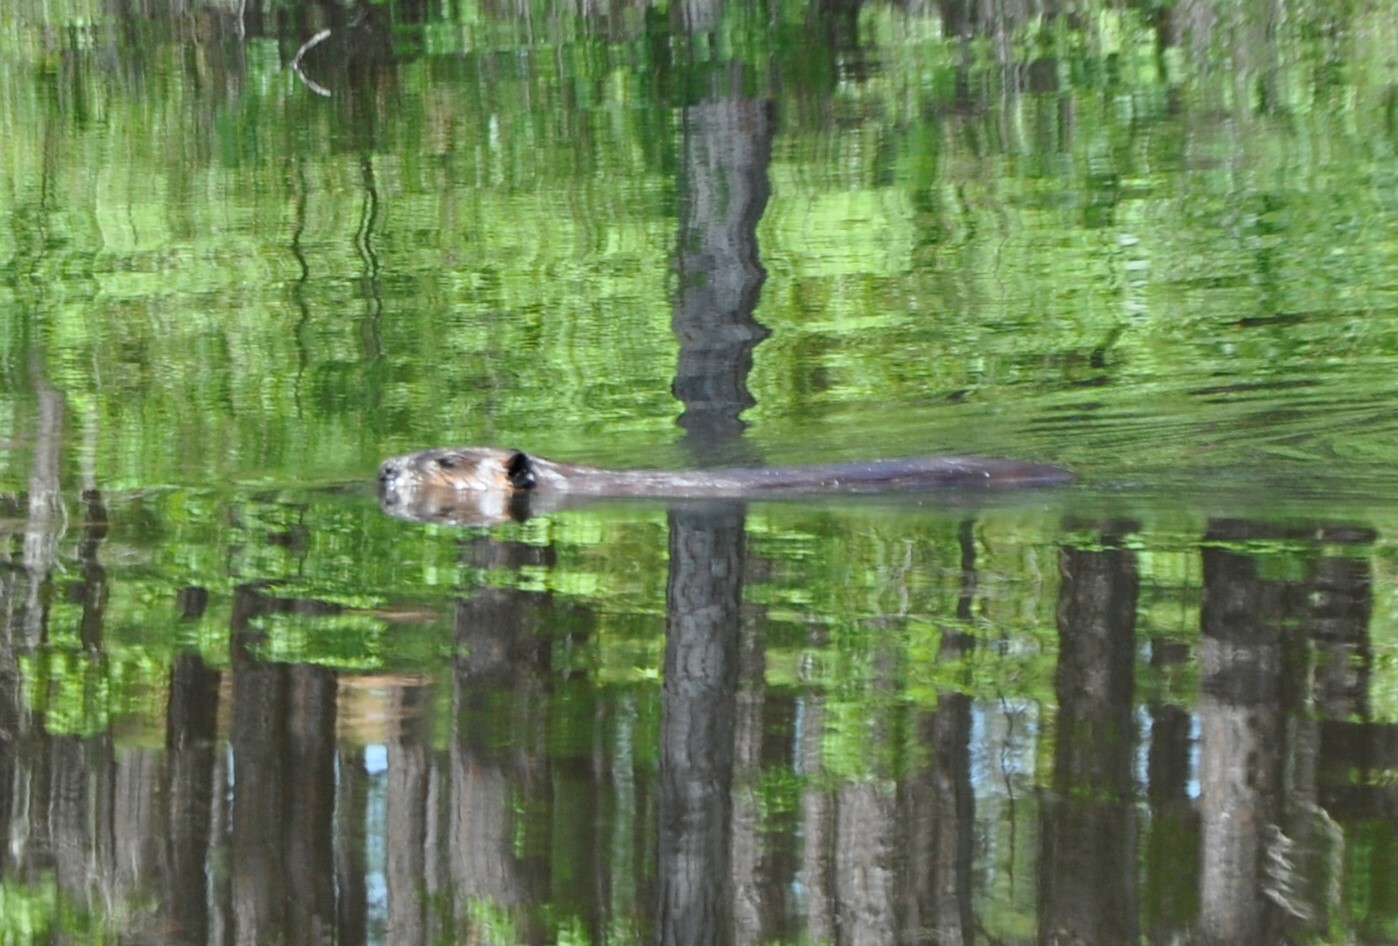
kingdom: Animalia
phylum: Chordata
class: Mammalia
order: Rodentia
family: Castoridae
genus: Castor
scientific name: Castor canadensis
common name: American beaver
